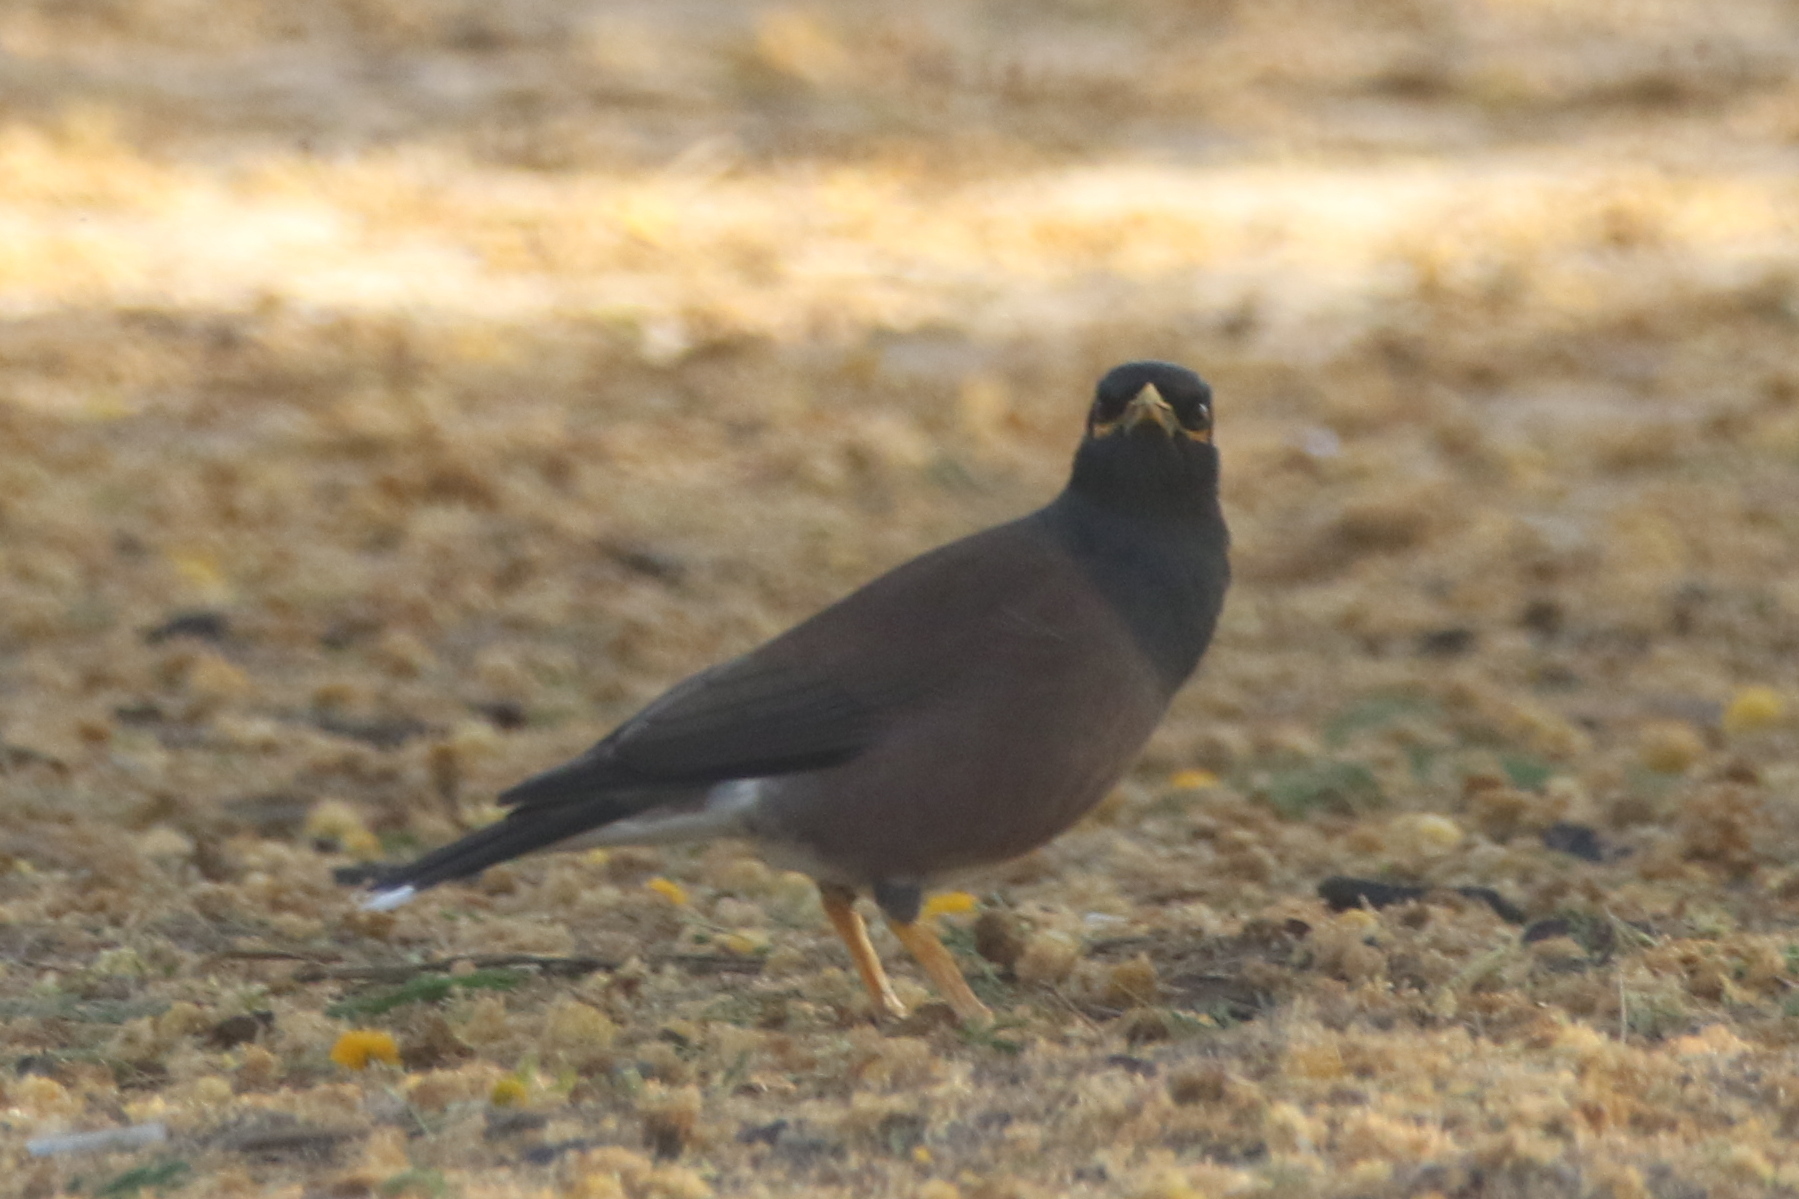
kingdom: Animalia
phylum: Chordata
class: Aves
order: Passeriformes
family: Sturnidae
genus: Acridotheres
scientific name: Acridotheres tristis
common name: Common myna
